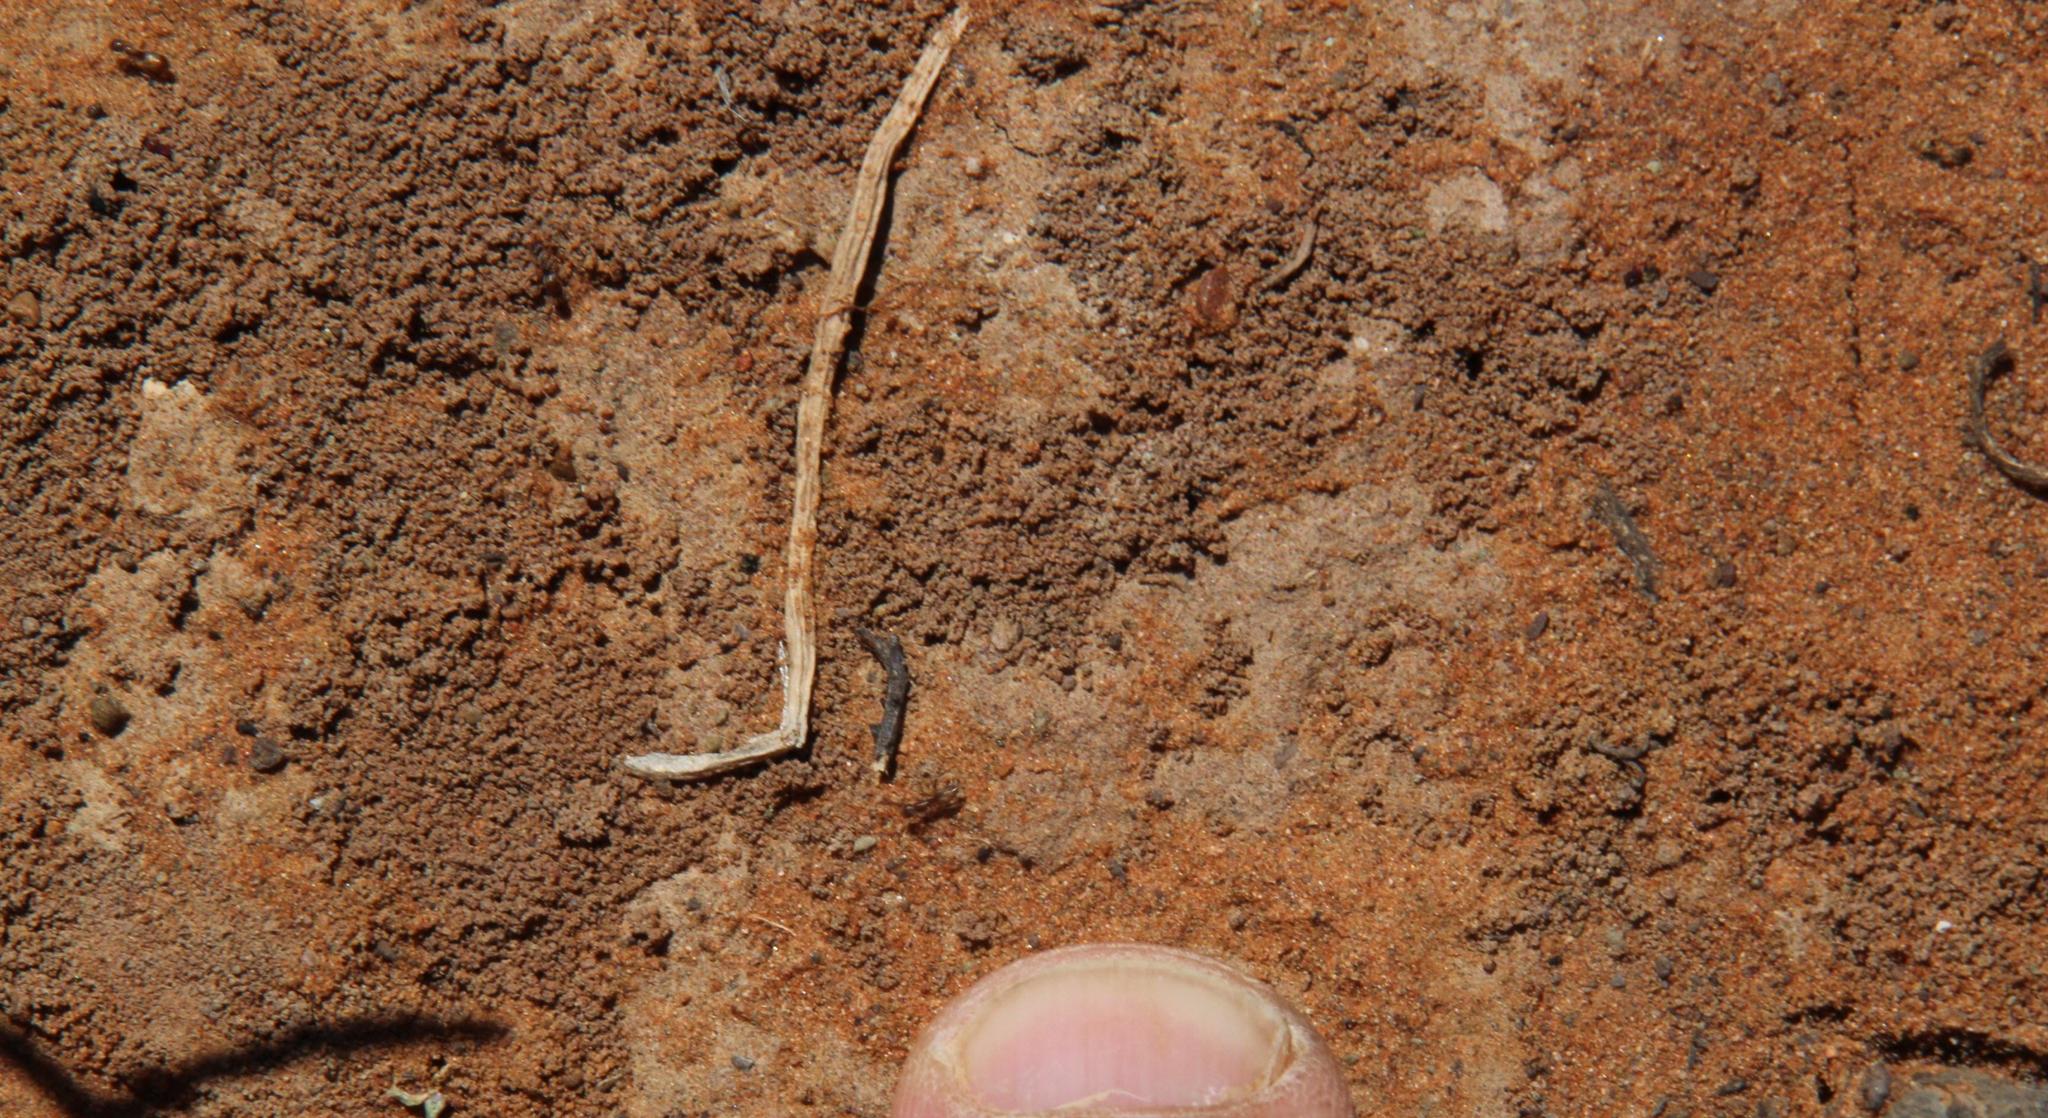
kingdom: Animalia
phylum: Arthropoda
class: Insecta
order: Hymenoptera
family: Formicidae
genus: Camponotus
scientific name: Camponotus vestitus
